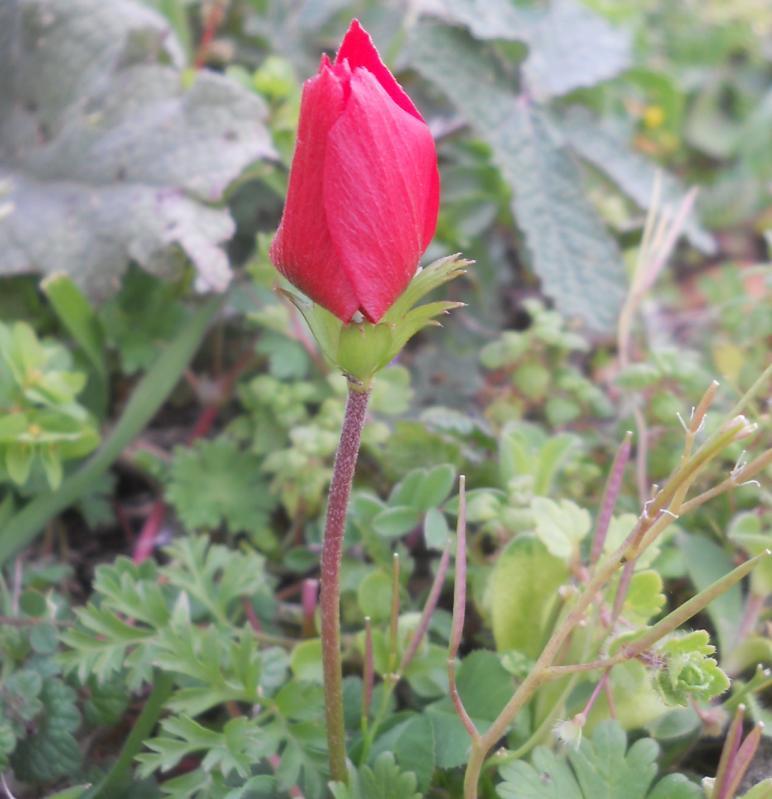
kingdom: Plantae
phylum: Tracheophyta
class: Magnoliopsida
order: Ranunculales
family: Ranunculaceae
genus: Anemone
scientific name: Anemone coronaria
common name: Poppy anemone
